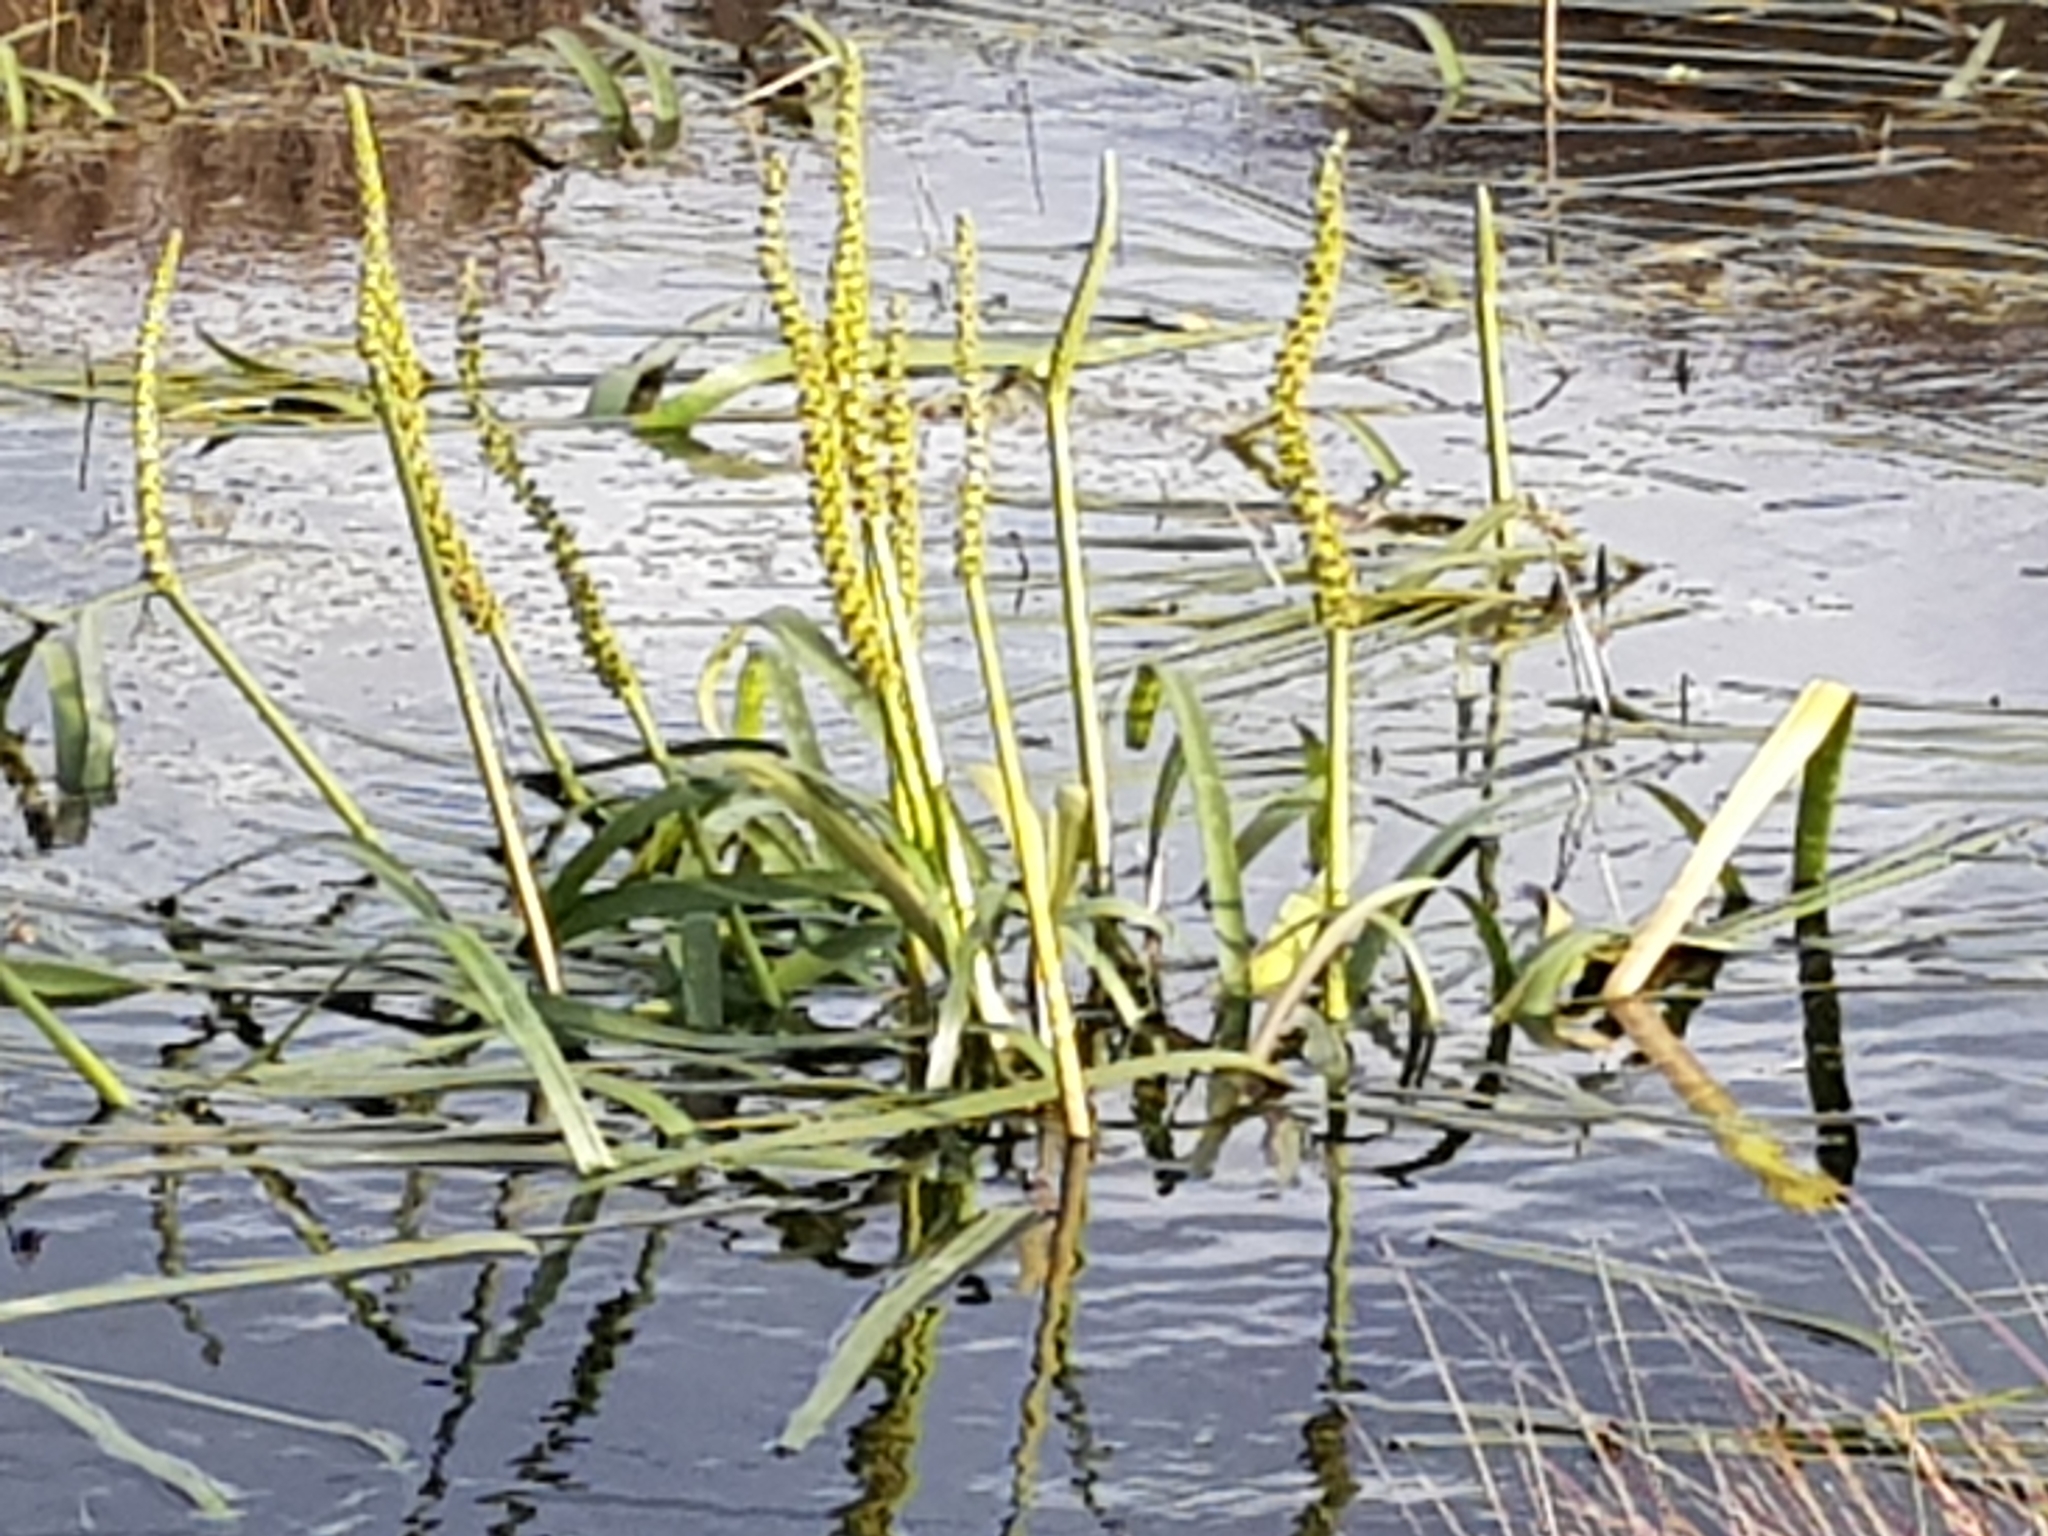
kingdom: Plantae
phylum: Tracheophyta
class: Liliopsida
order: Alismatales
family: Juncaginaceae
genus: Cycnogeton
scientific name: Cycnogeton procerum
